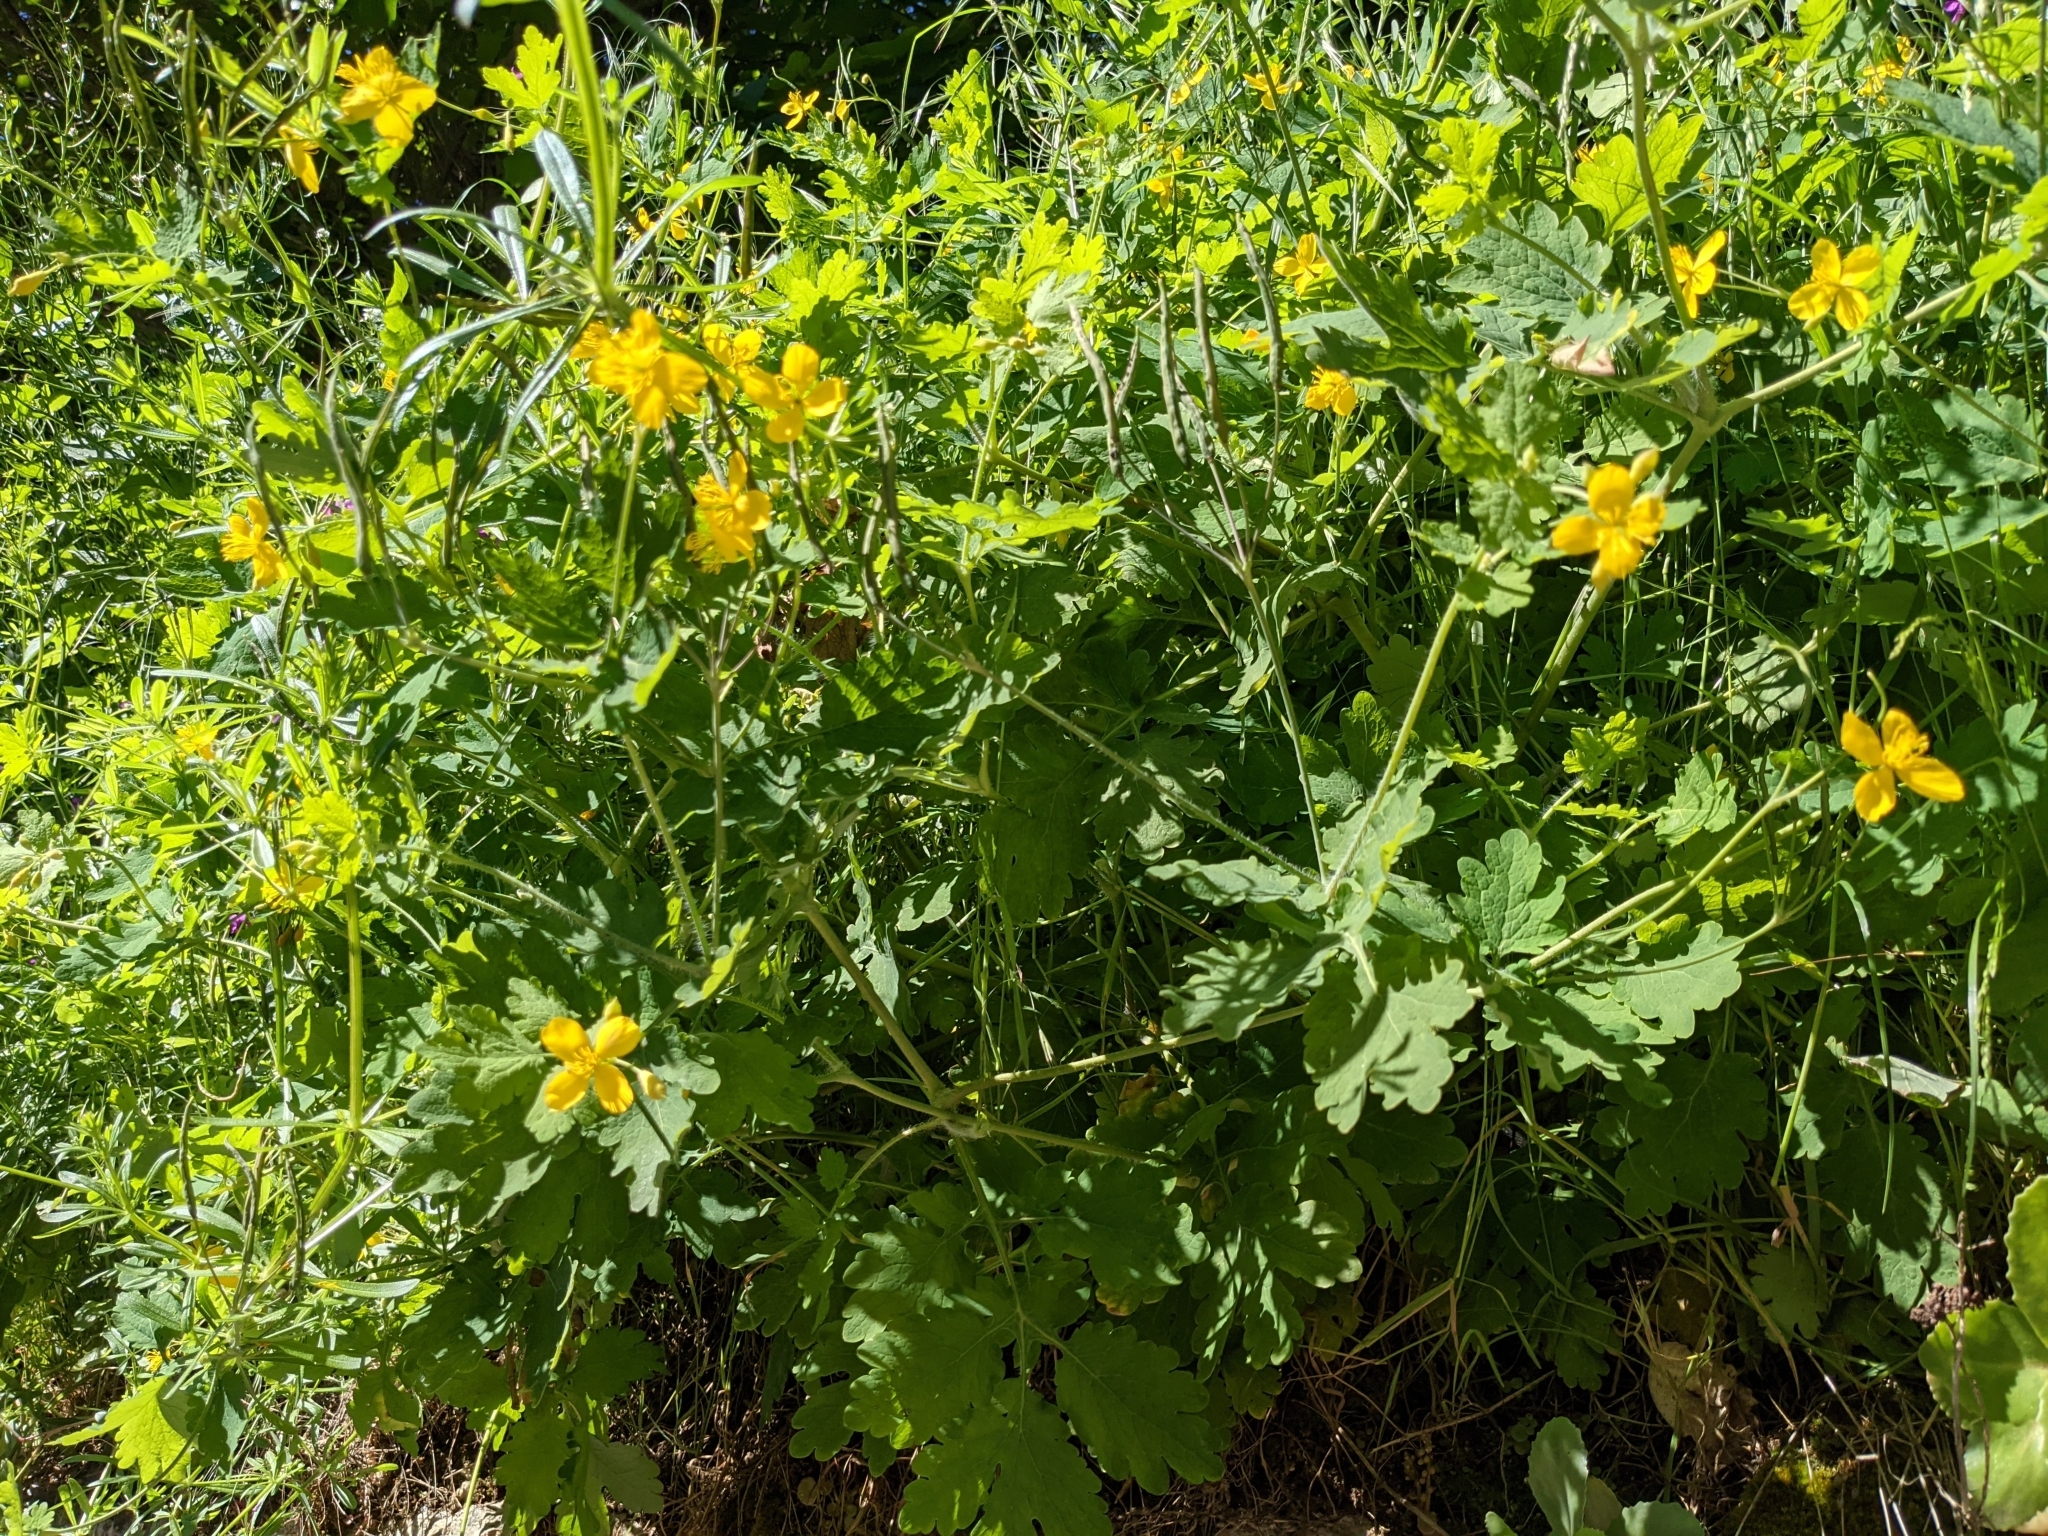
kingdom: Plantae
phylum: Tracheophyta
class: Magnoliopsida
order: Ranunculales
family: Papaveraceae
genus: Chelidonium
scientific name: Chelidonium majus
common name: Greater celandine
